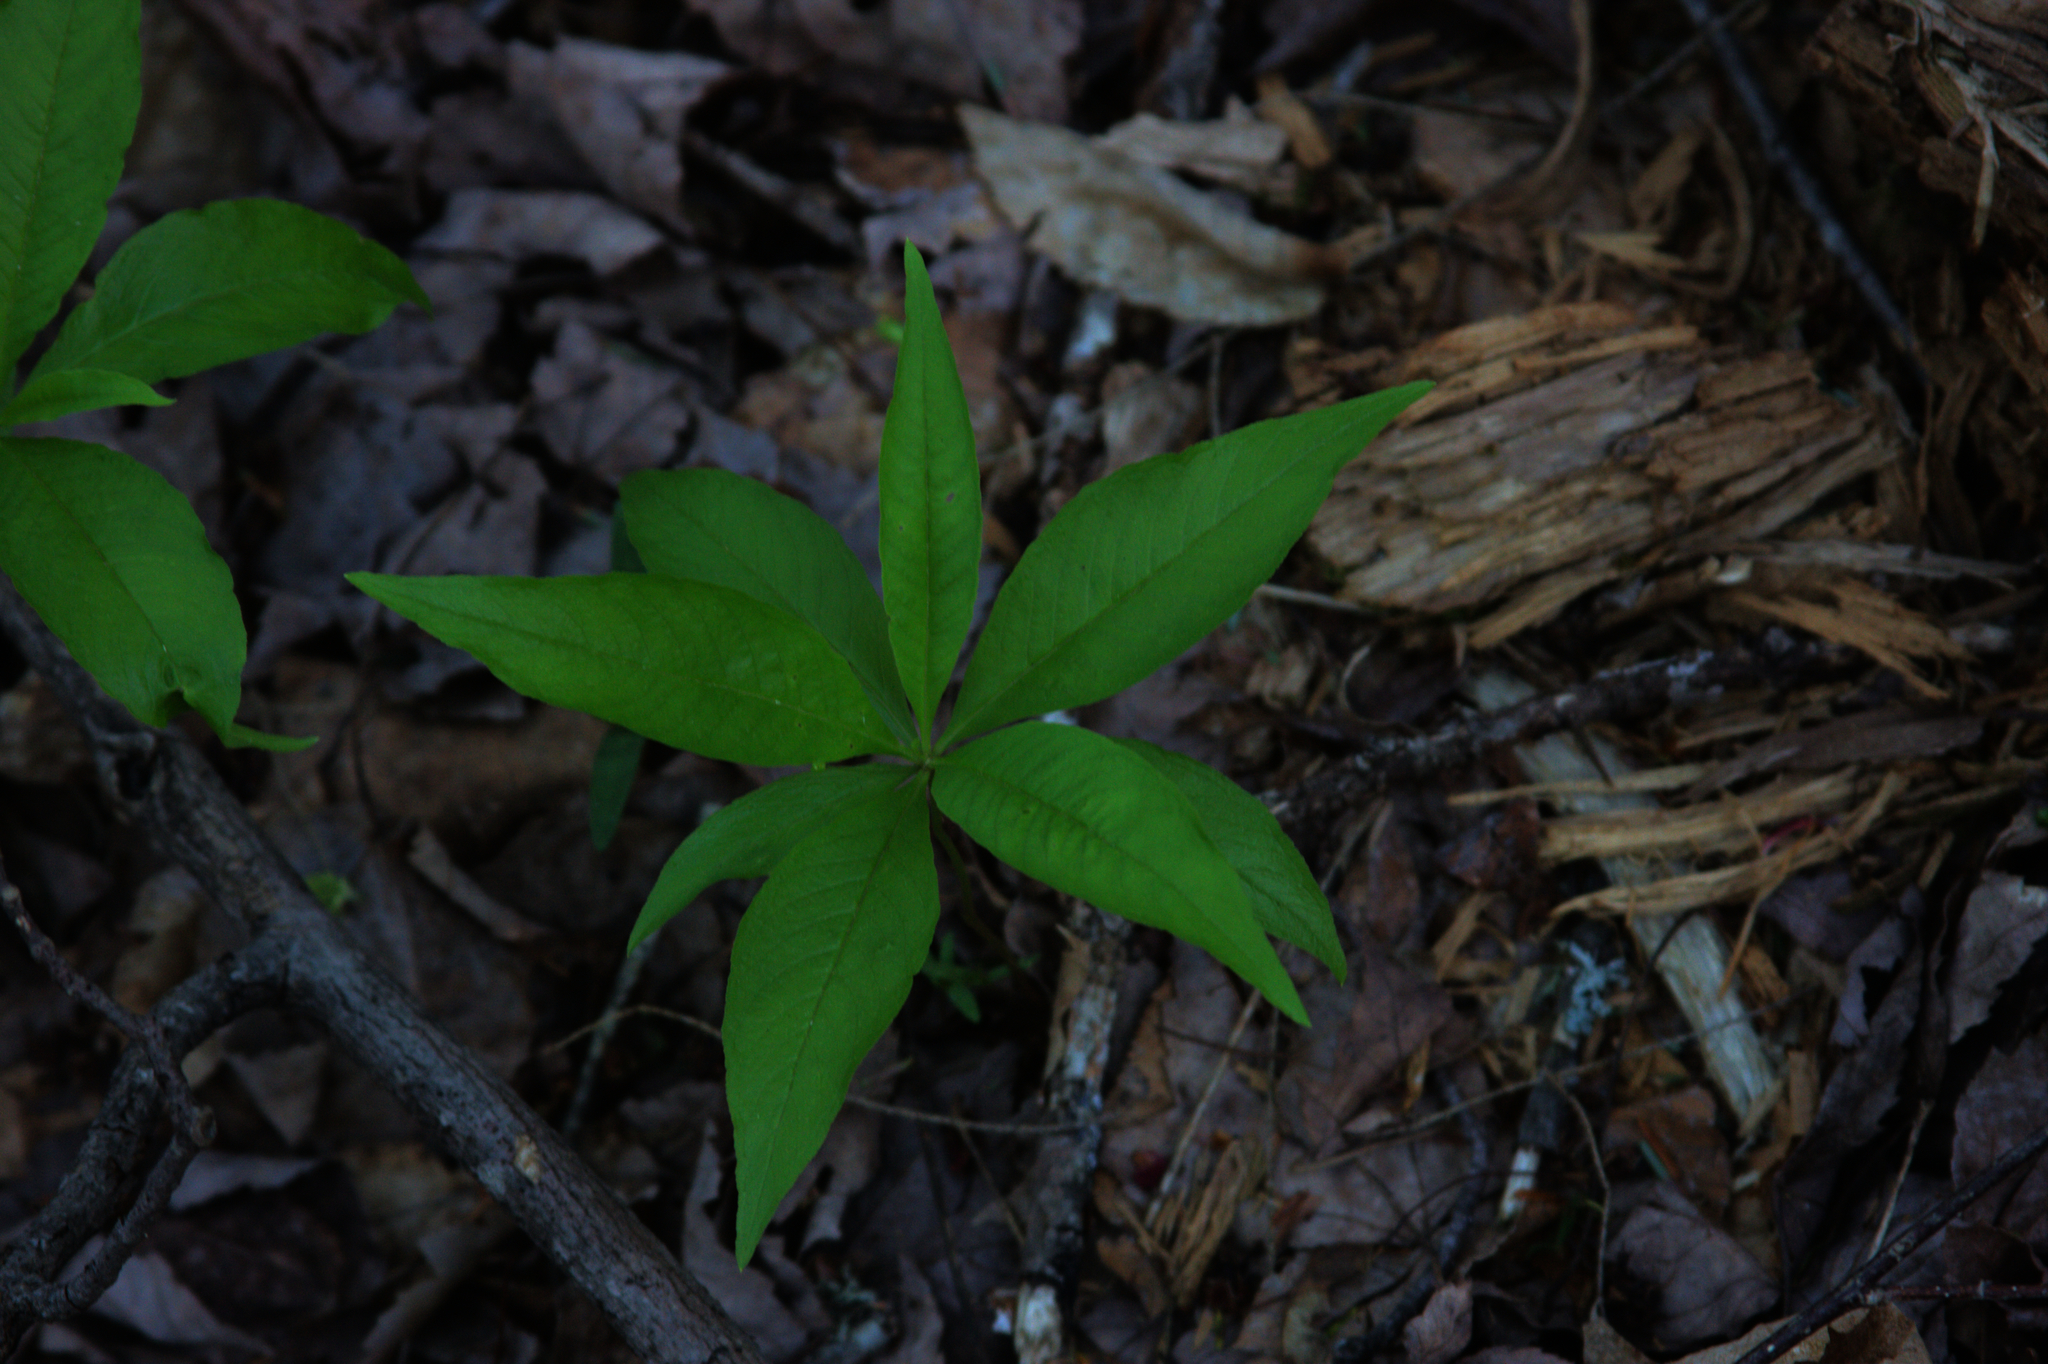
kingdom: Plantae
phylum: Tracheophyta
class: Magnoliopsida
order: Ericales
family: Primulaceae
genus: Lysimachia
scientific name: Lysimachia borealis
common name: American starflower
